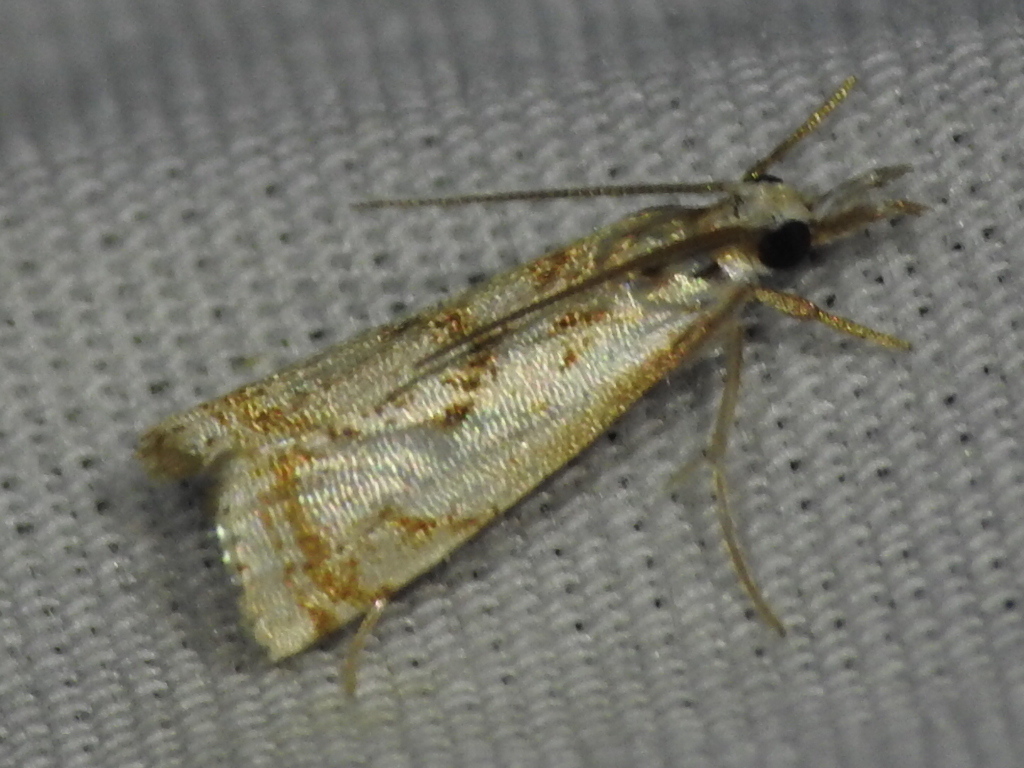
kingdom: Animalia
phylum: Arthropoda
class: Insecta
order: Lepidoptera
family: Crambidae
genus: Microcrambus
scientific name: Microcrambus elegans
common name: Elegant grass-veneer
